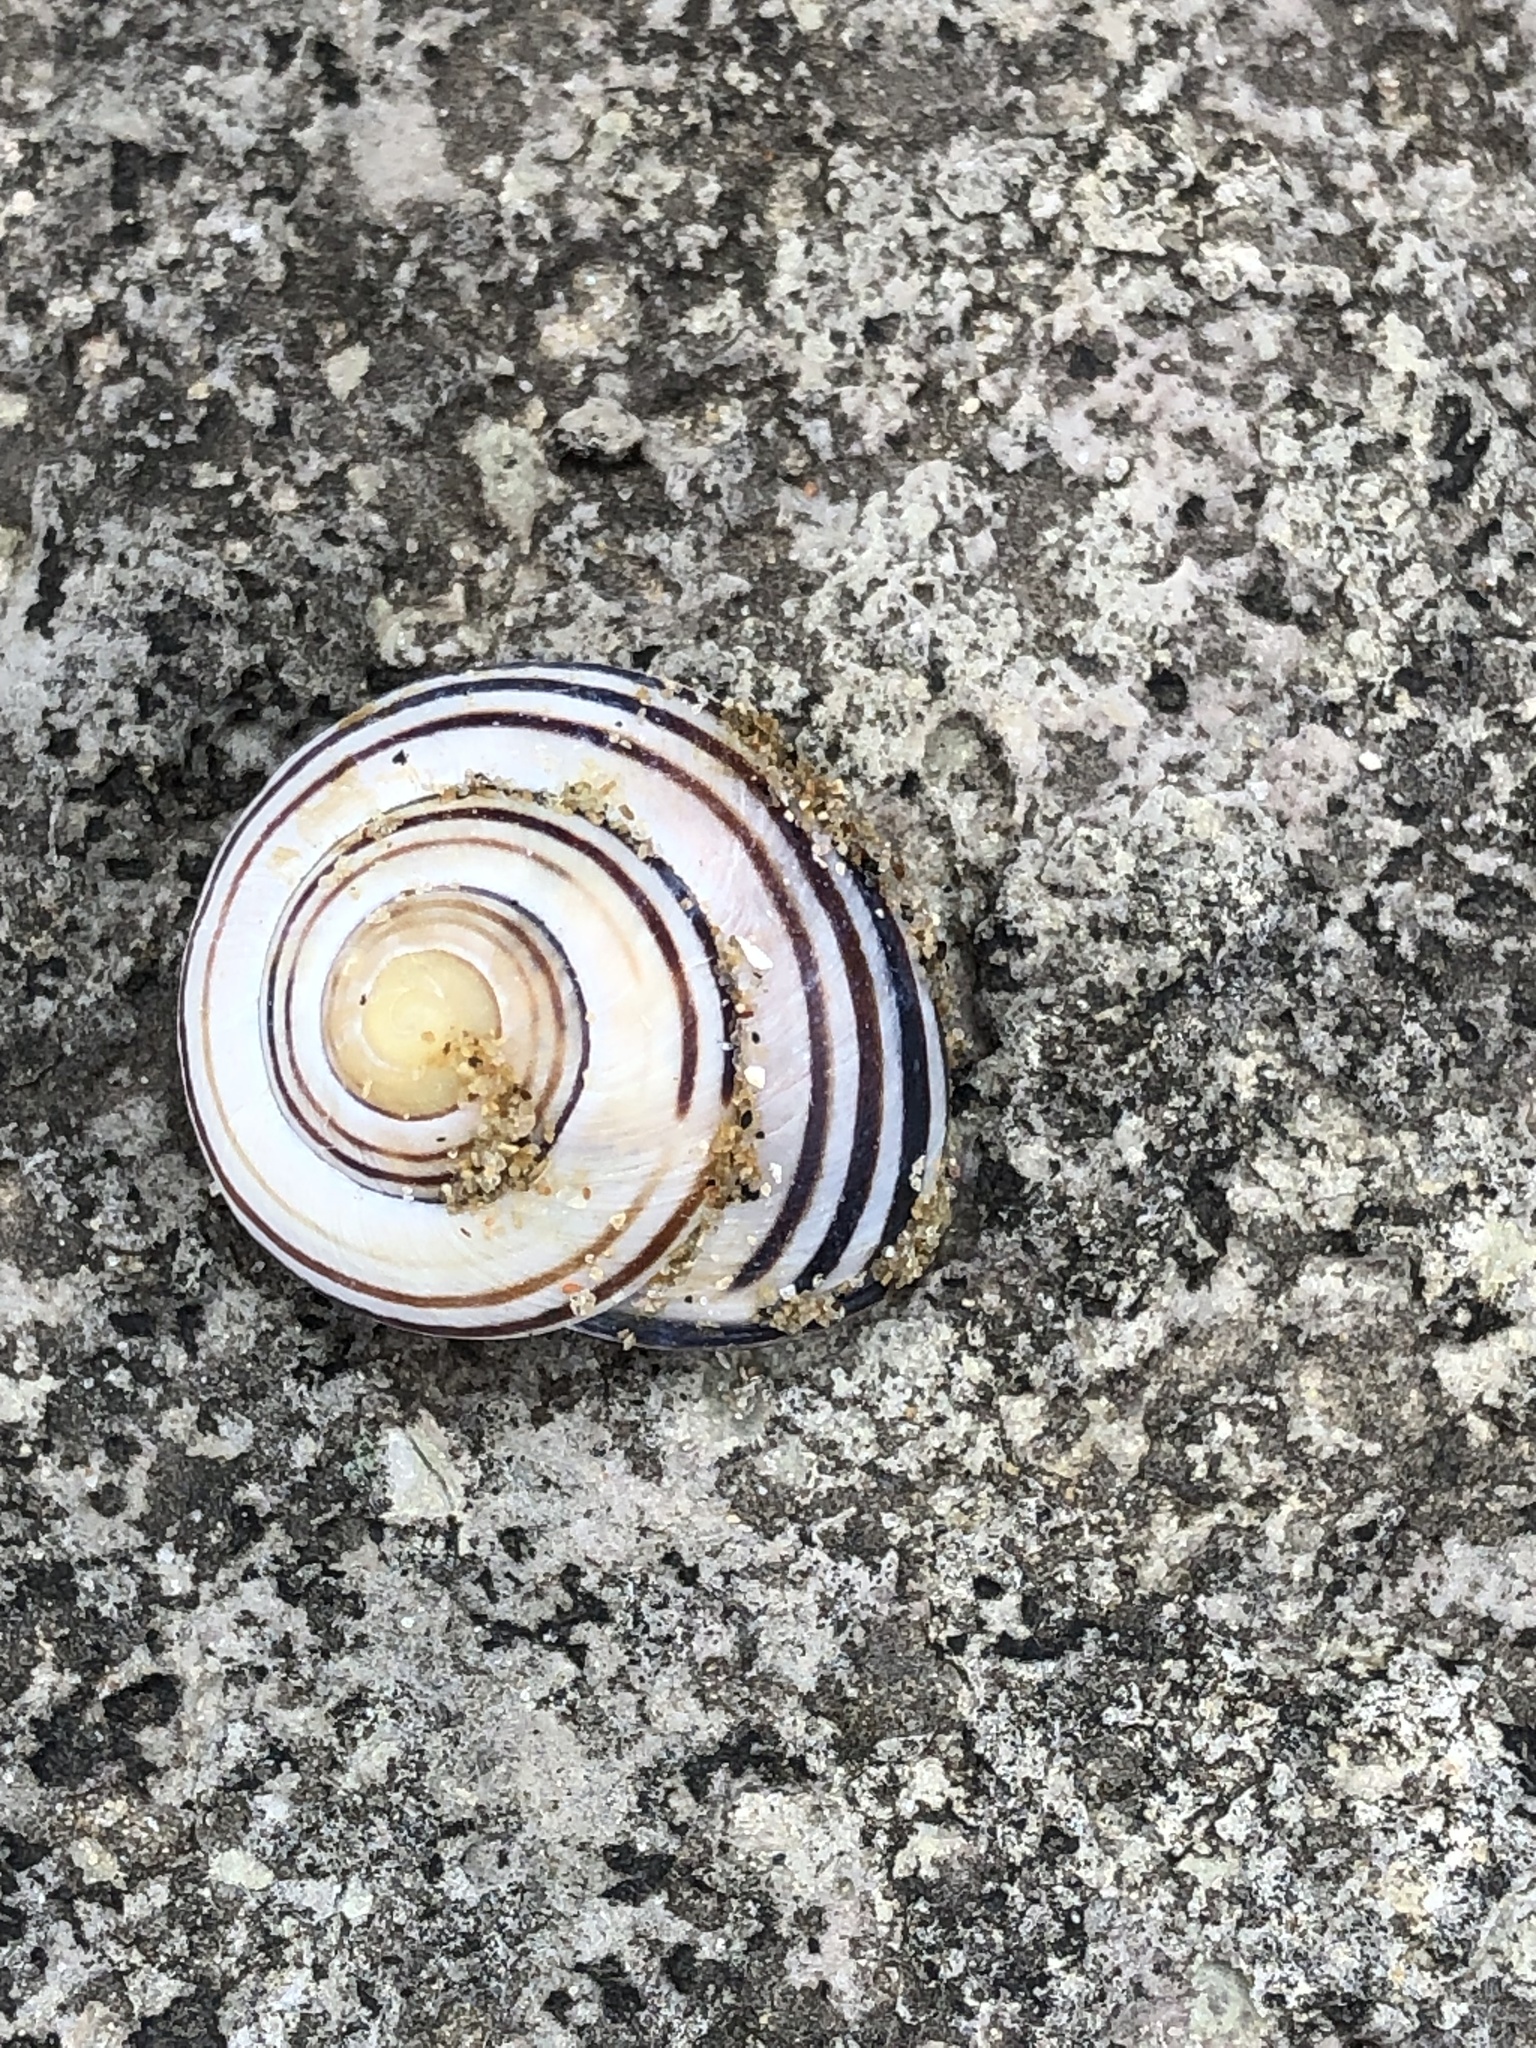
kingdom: Animalia
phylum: Mollusca
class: Gastropoda
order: Stylommatophora
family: Helicidae
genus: Cepaea
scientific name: Cepaea nemoralis
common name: Grovesnail
